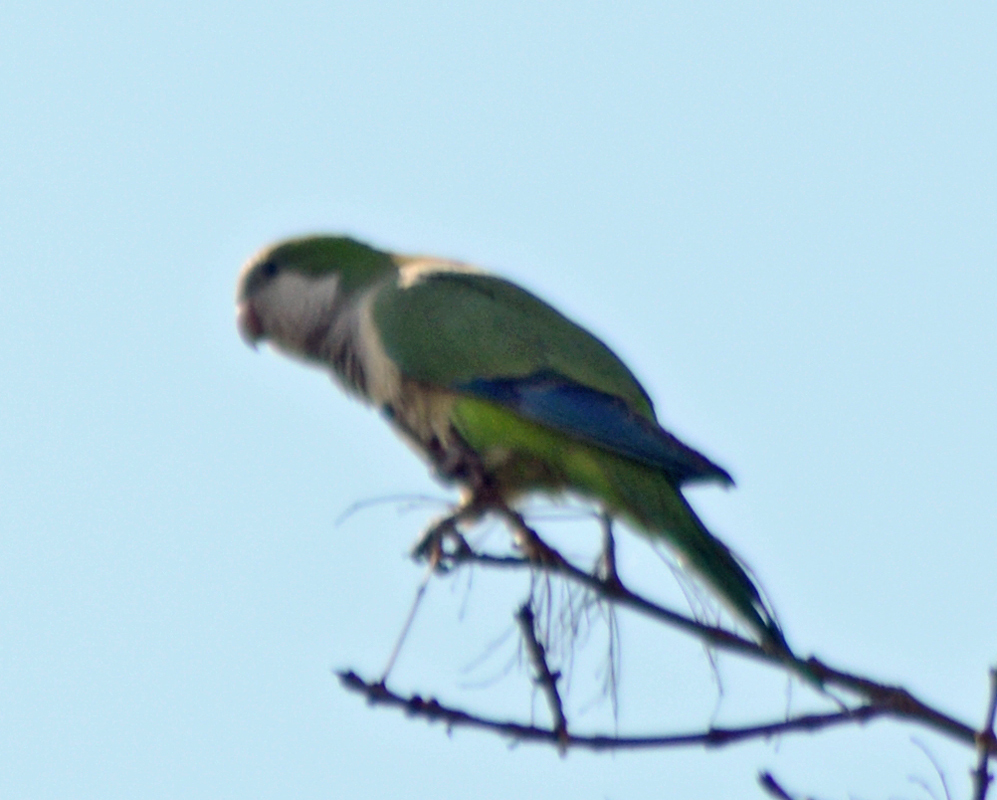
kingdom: Animalia
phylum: Chordata
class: Aves
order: Psittaciformes
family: Psittacidae
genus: Myiopsitta
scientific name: Myiopsitta monachus
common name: Monk parakeet
